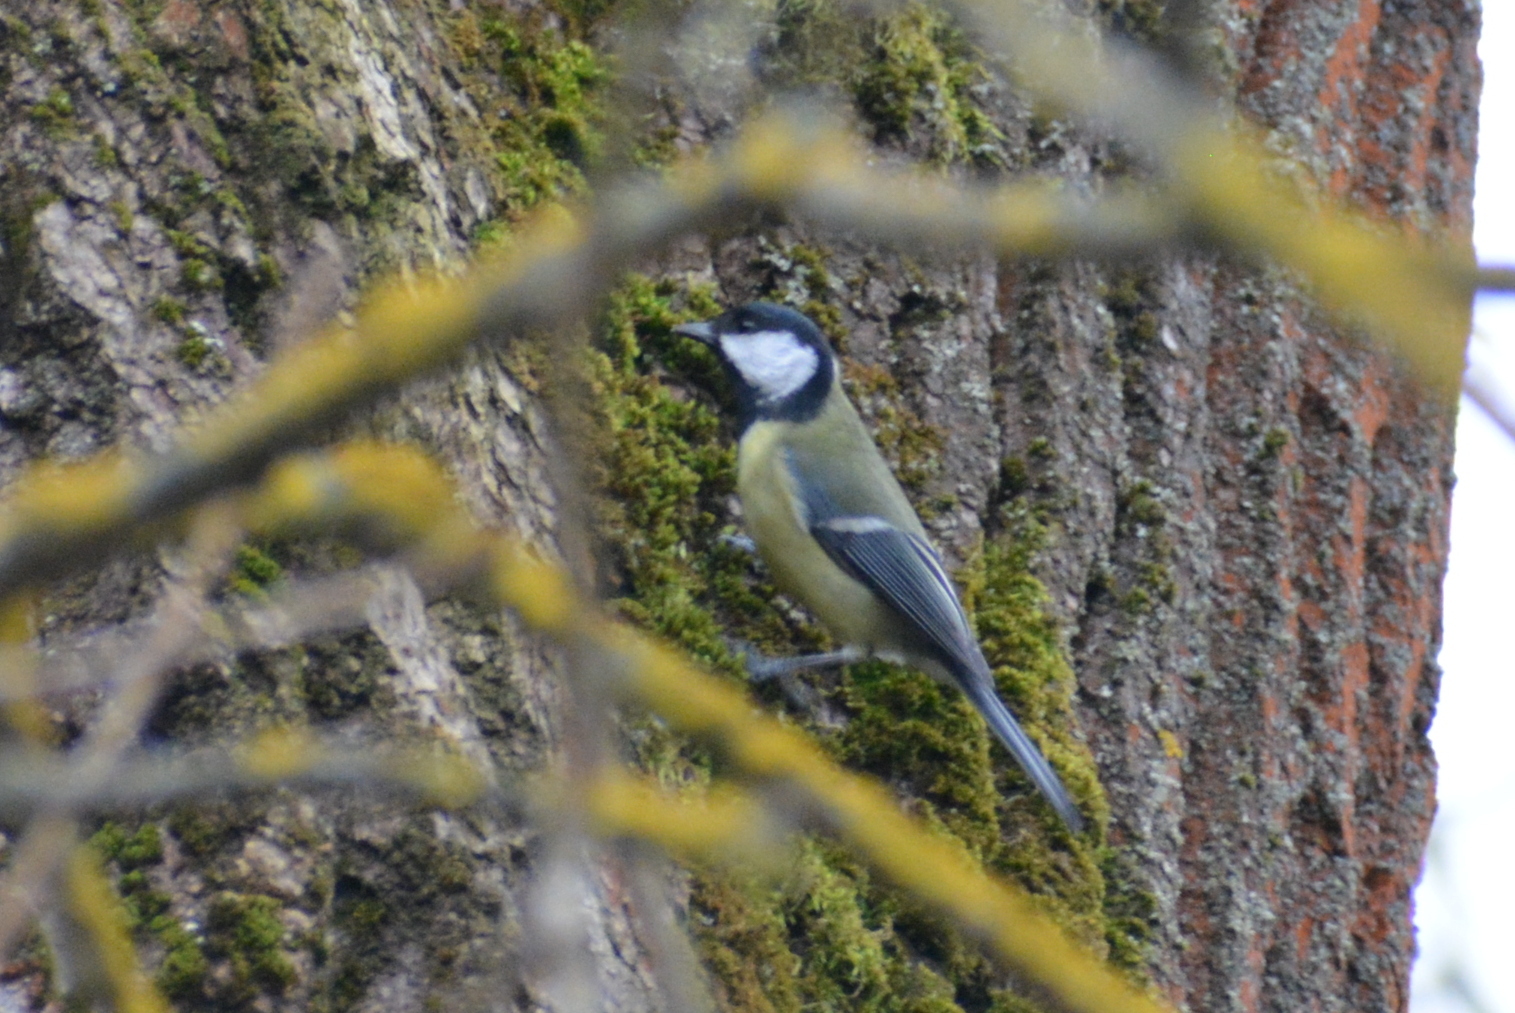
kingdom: Animalia
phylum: Chordata
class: Aves
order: Passeriformes
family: Paridae
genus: Parus
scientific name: Parus major
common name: Great tit
